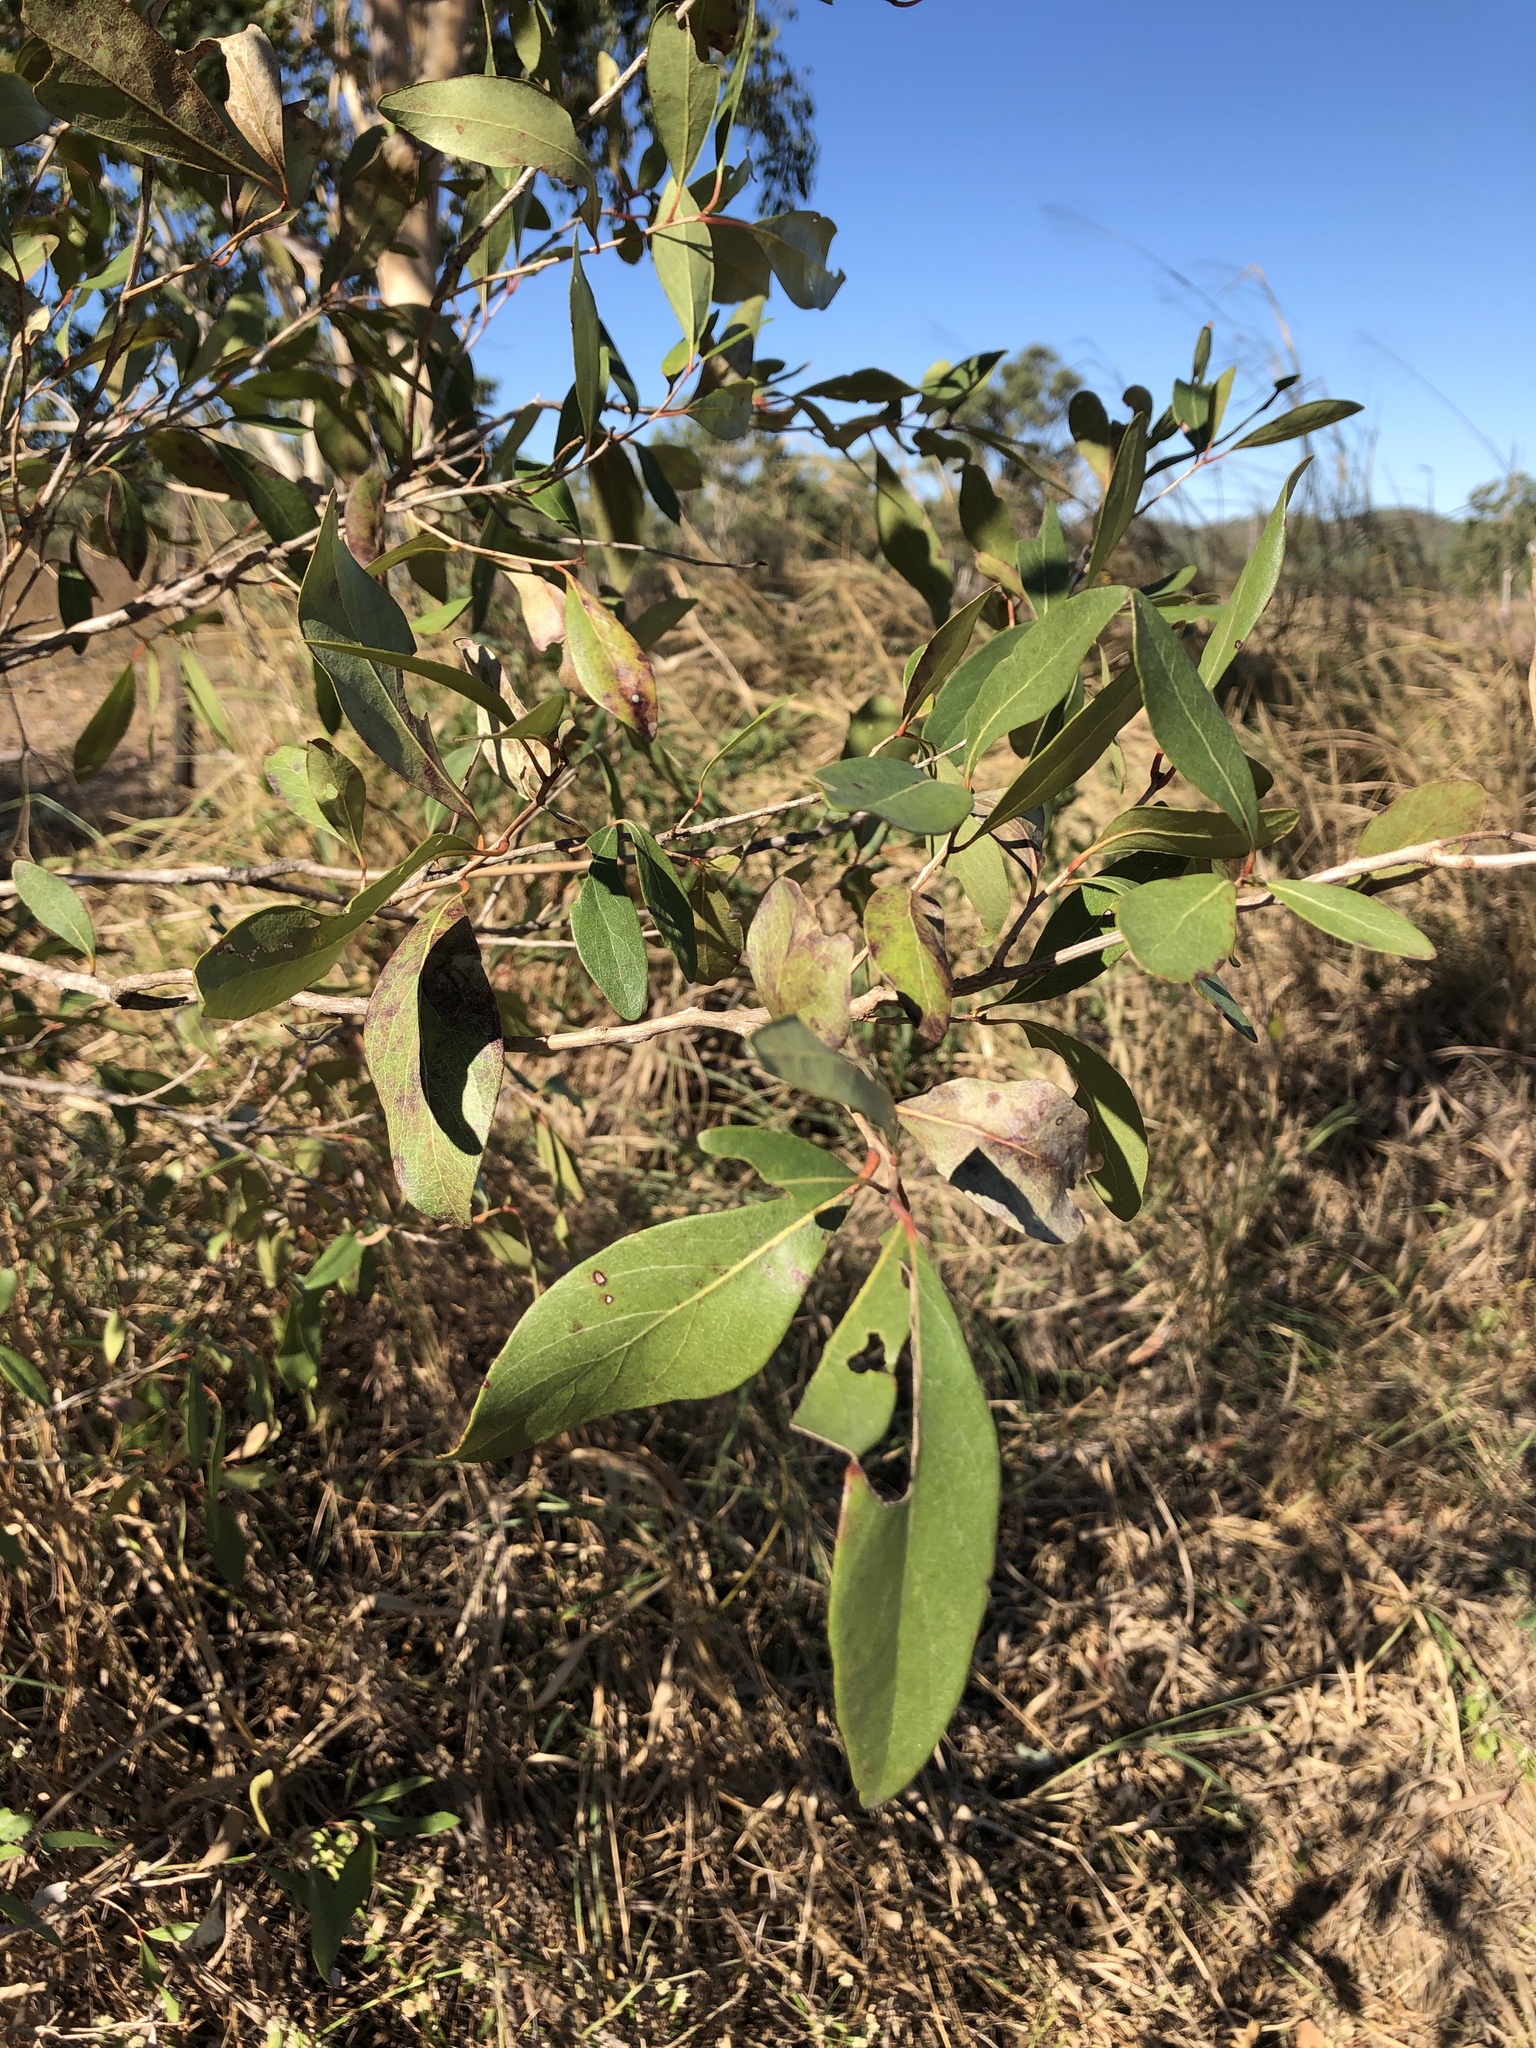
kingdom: Plantae
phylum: Tracheophyta
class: Magnoliopsida
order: Myrtales
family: Myrtaceae
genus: Lophostemon
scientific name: Lophostemon grandiflorus
